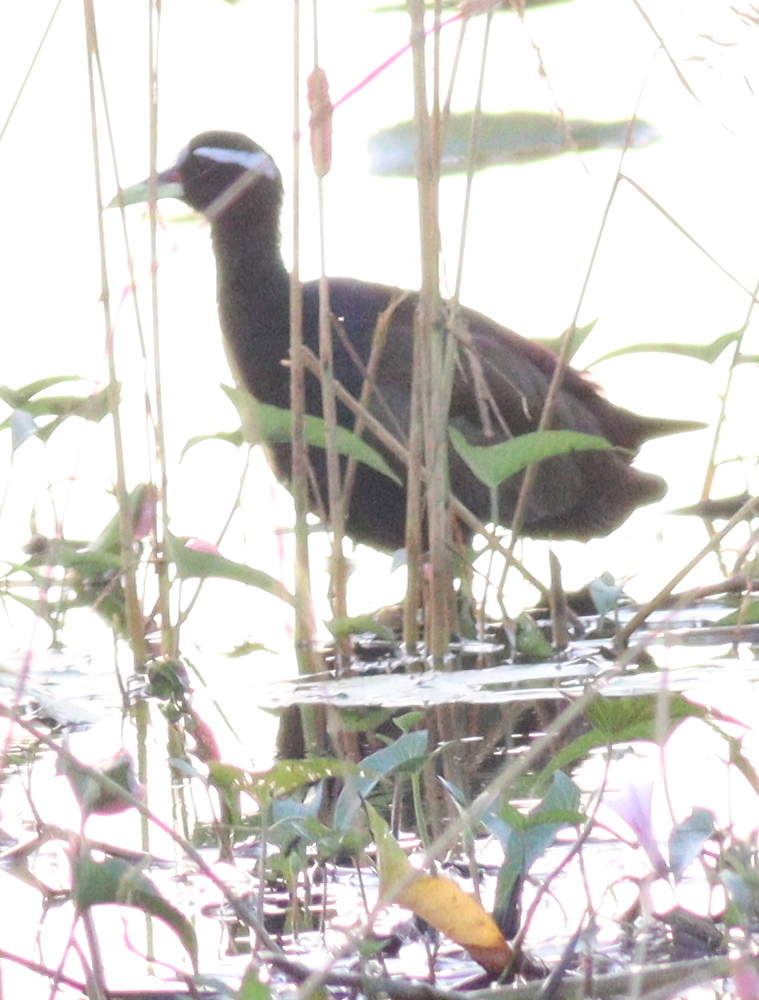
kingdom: Animalia
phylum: Chordata
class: Aves
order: Charadriiformes
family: Jacanidae
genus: Metopidius
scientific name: Metopidius indicus
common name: Bronze-winged jacana
